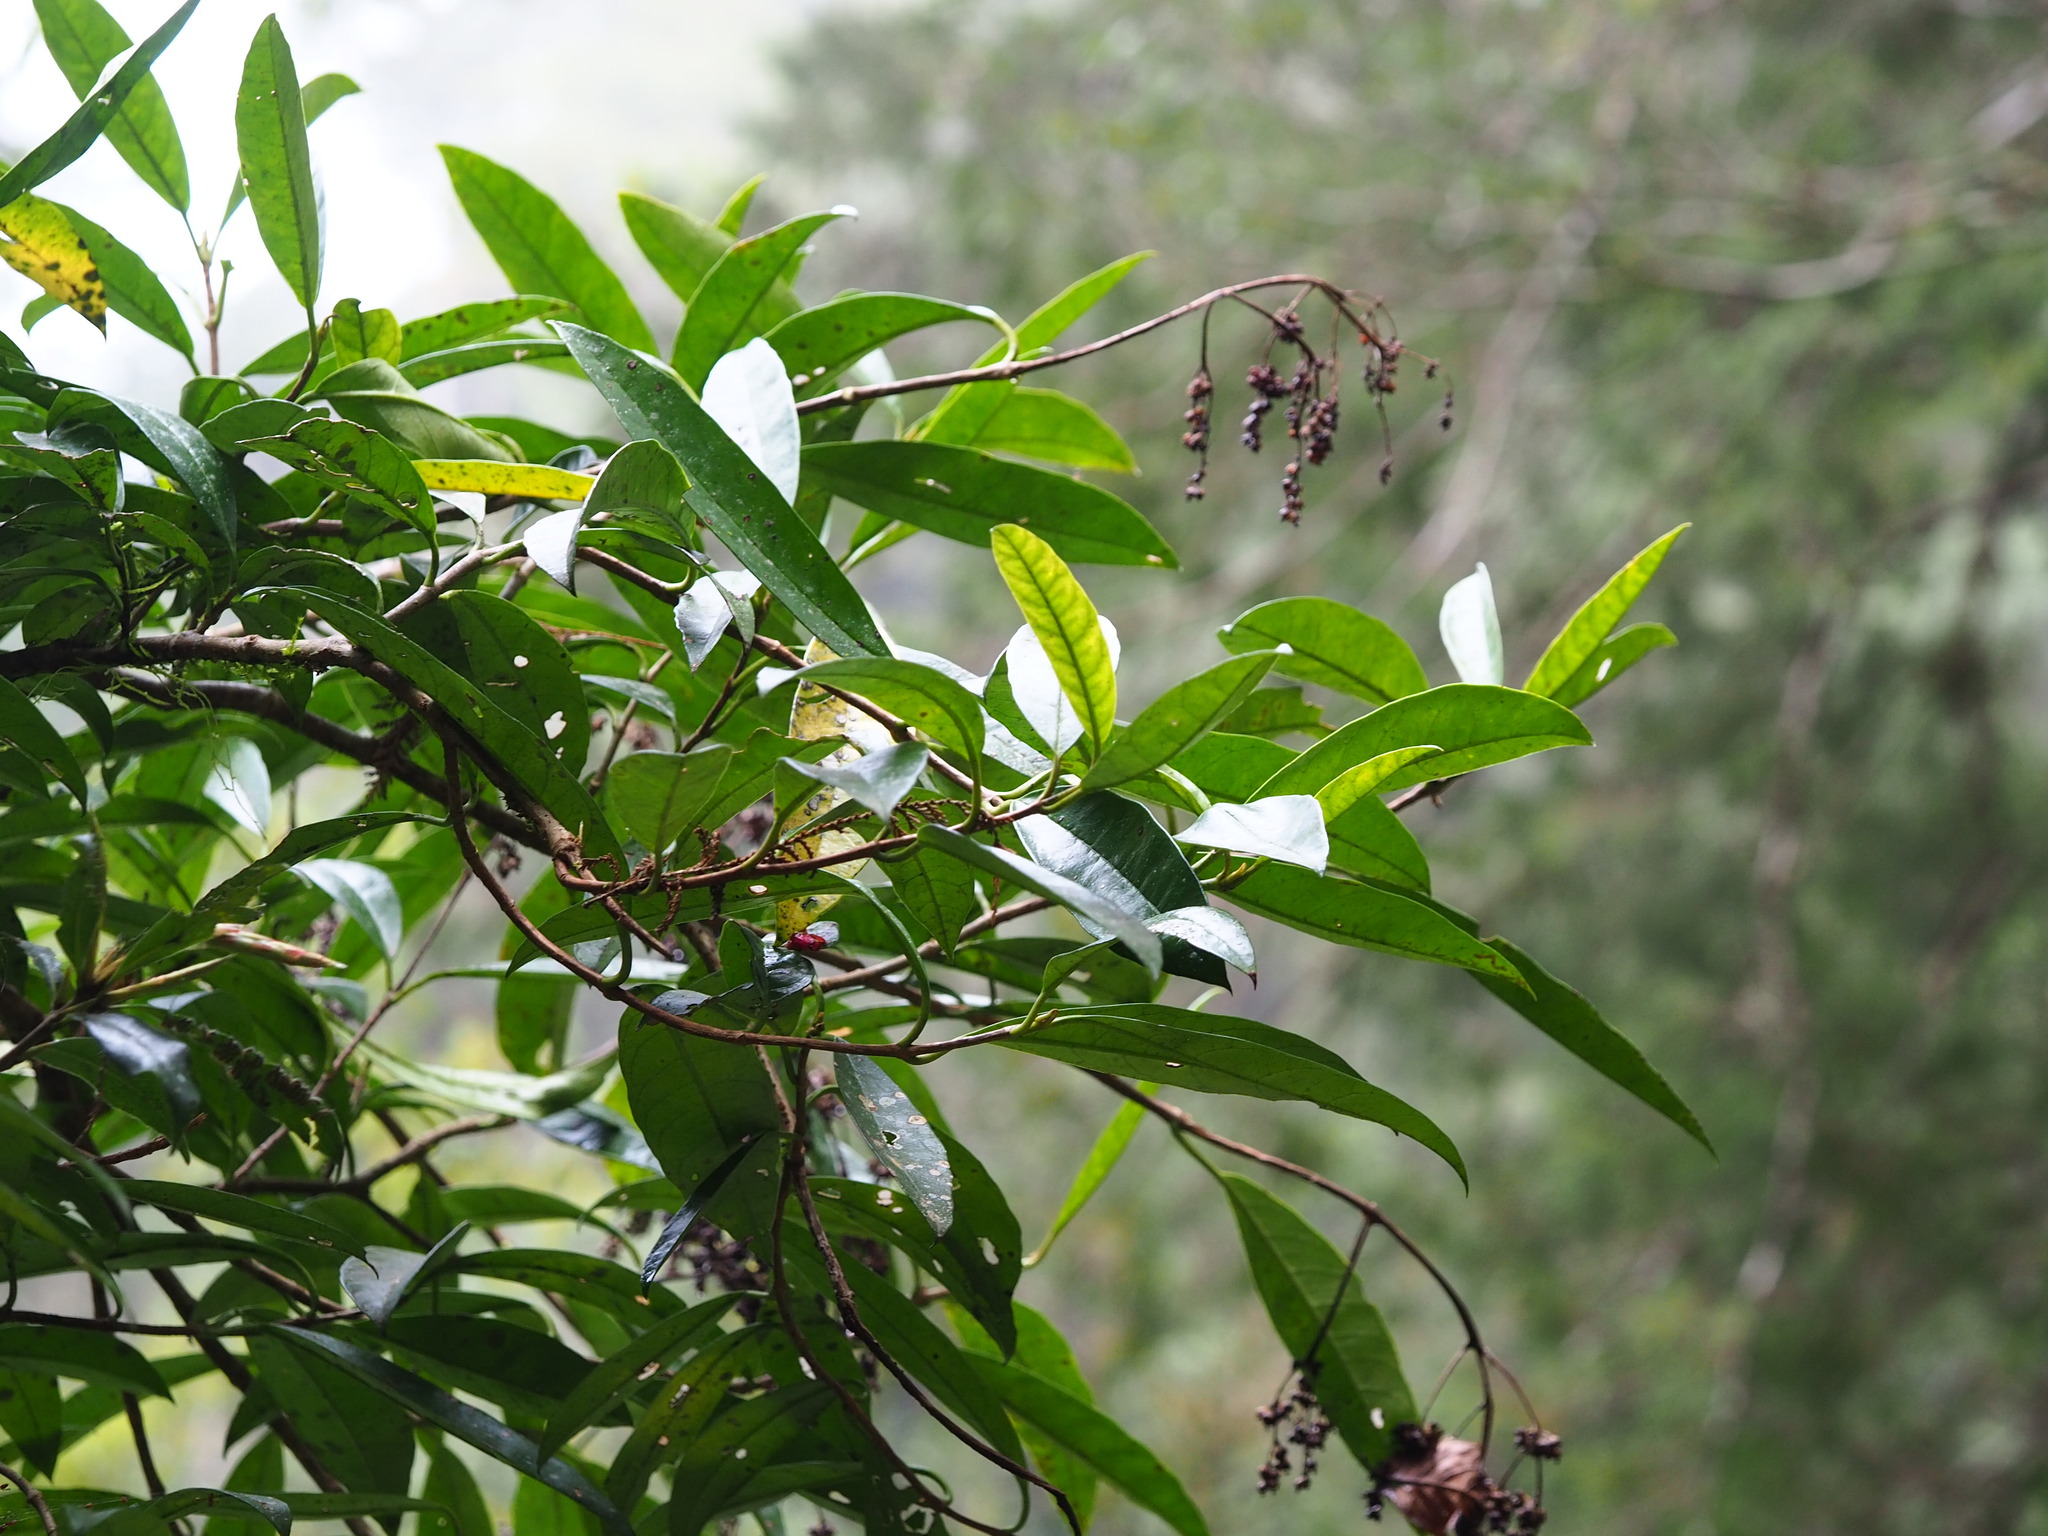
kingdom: Plantae
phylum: Tracheophyta
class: Magnoliopsida
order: Cornales
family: Hydrangeaceae
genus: Hydrangea
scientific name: Hydrangea viburnoides
